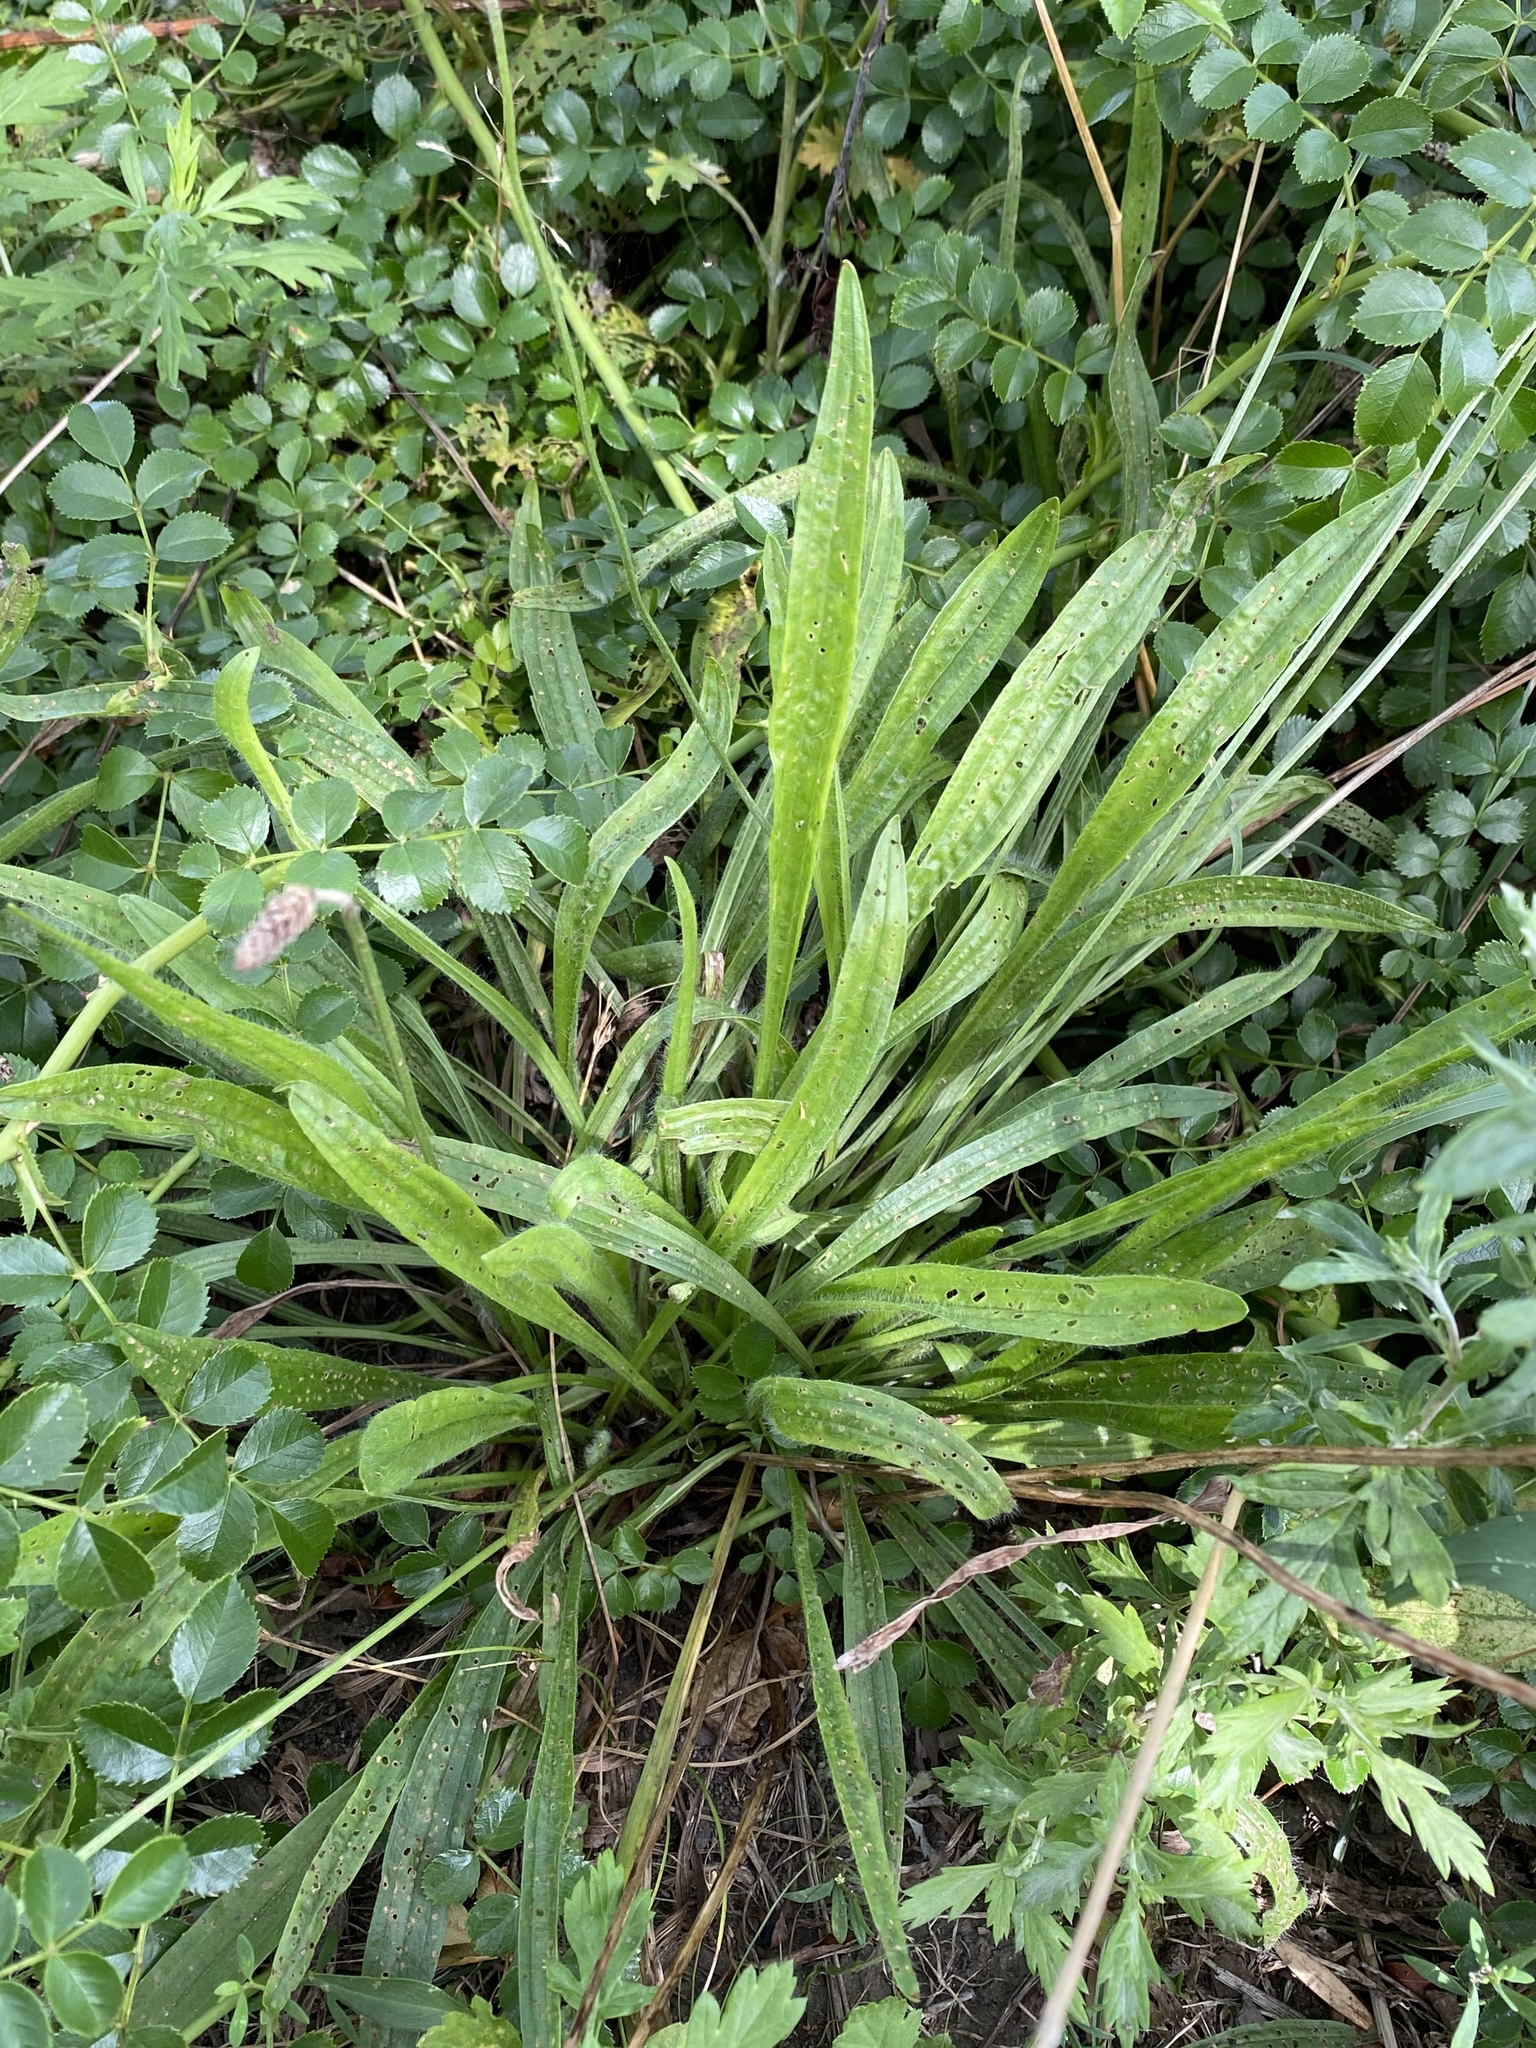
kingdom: Plantae
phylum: Tracheophyta
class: Magnoliopsida
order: Lamiales
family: Plantaginaceae
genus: Plantago
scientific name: Plantago lanceolata
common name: Ribwort plantain
